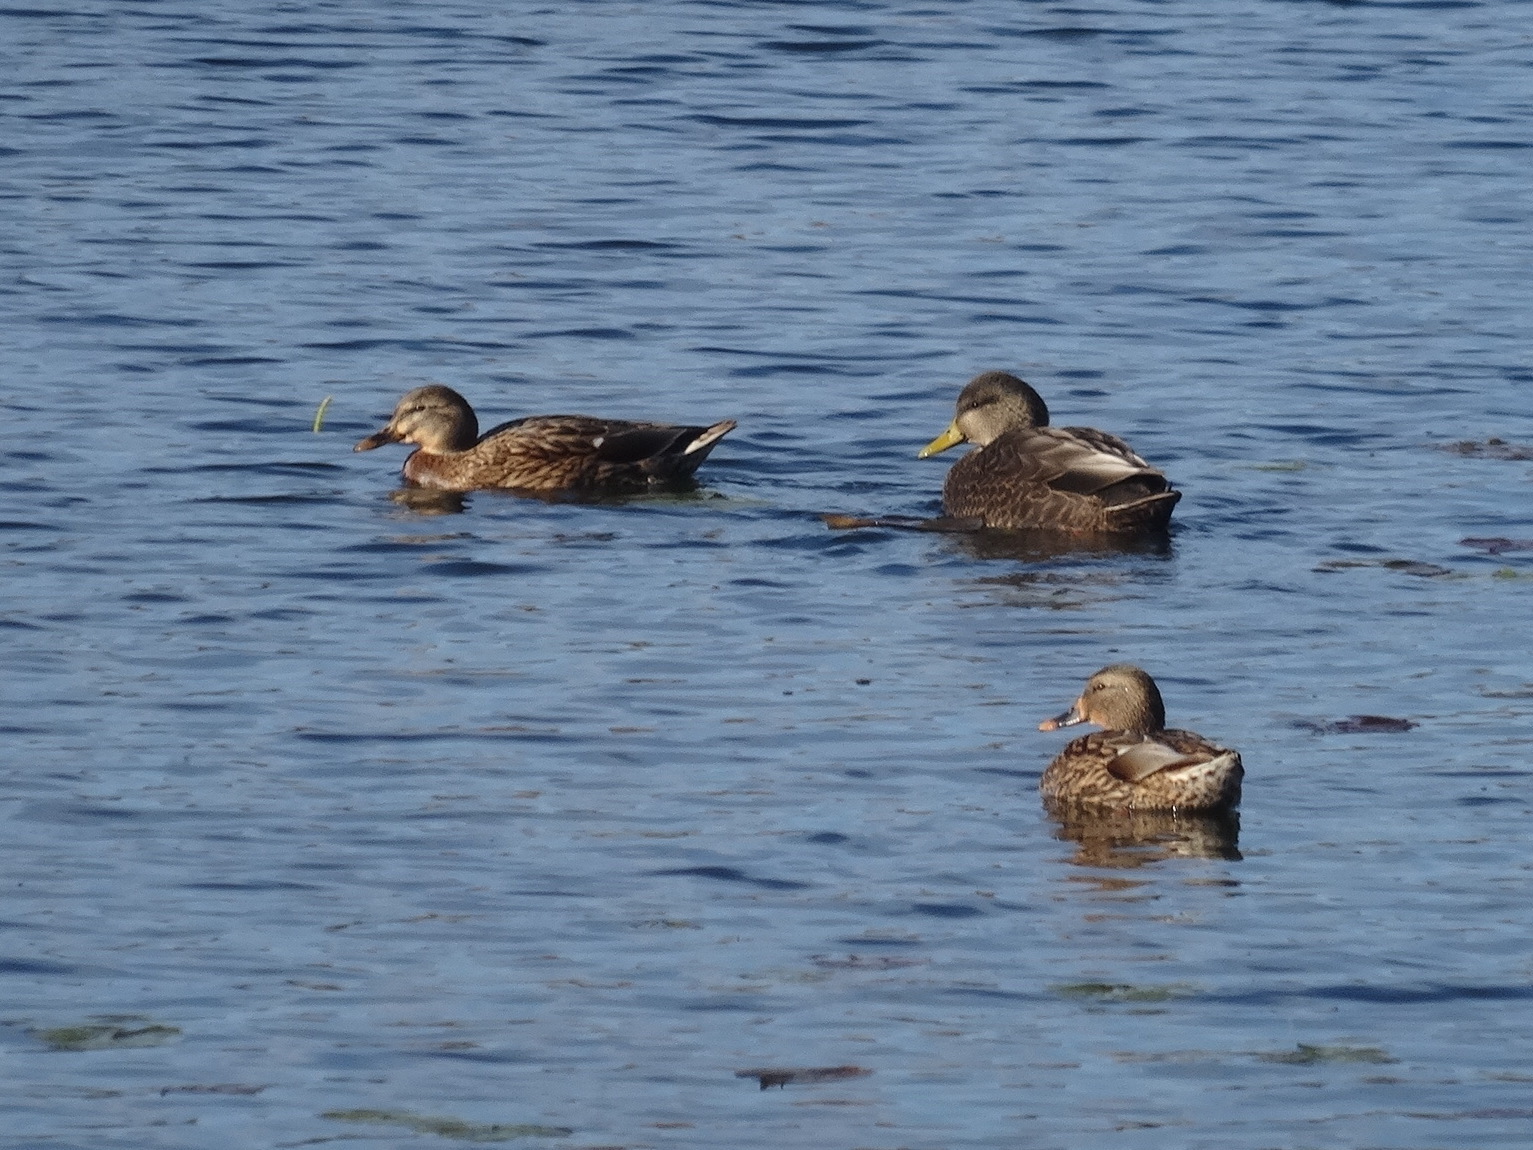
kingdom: Animalia
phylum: Chordata
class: Aves
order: Anseriformes
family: Anatidae
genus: Anas
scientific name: Anas rubripes
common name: American black duck
